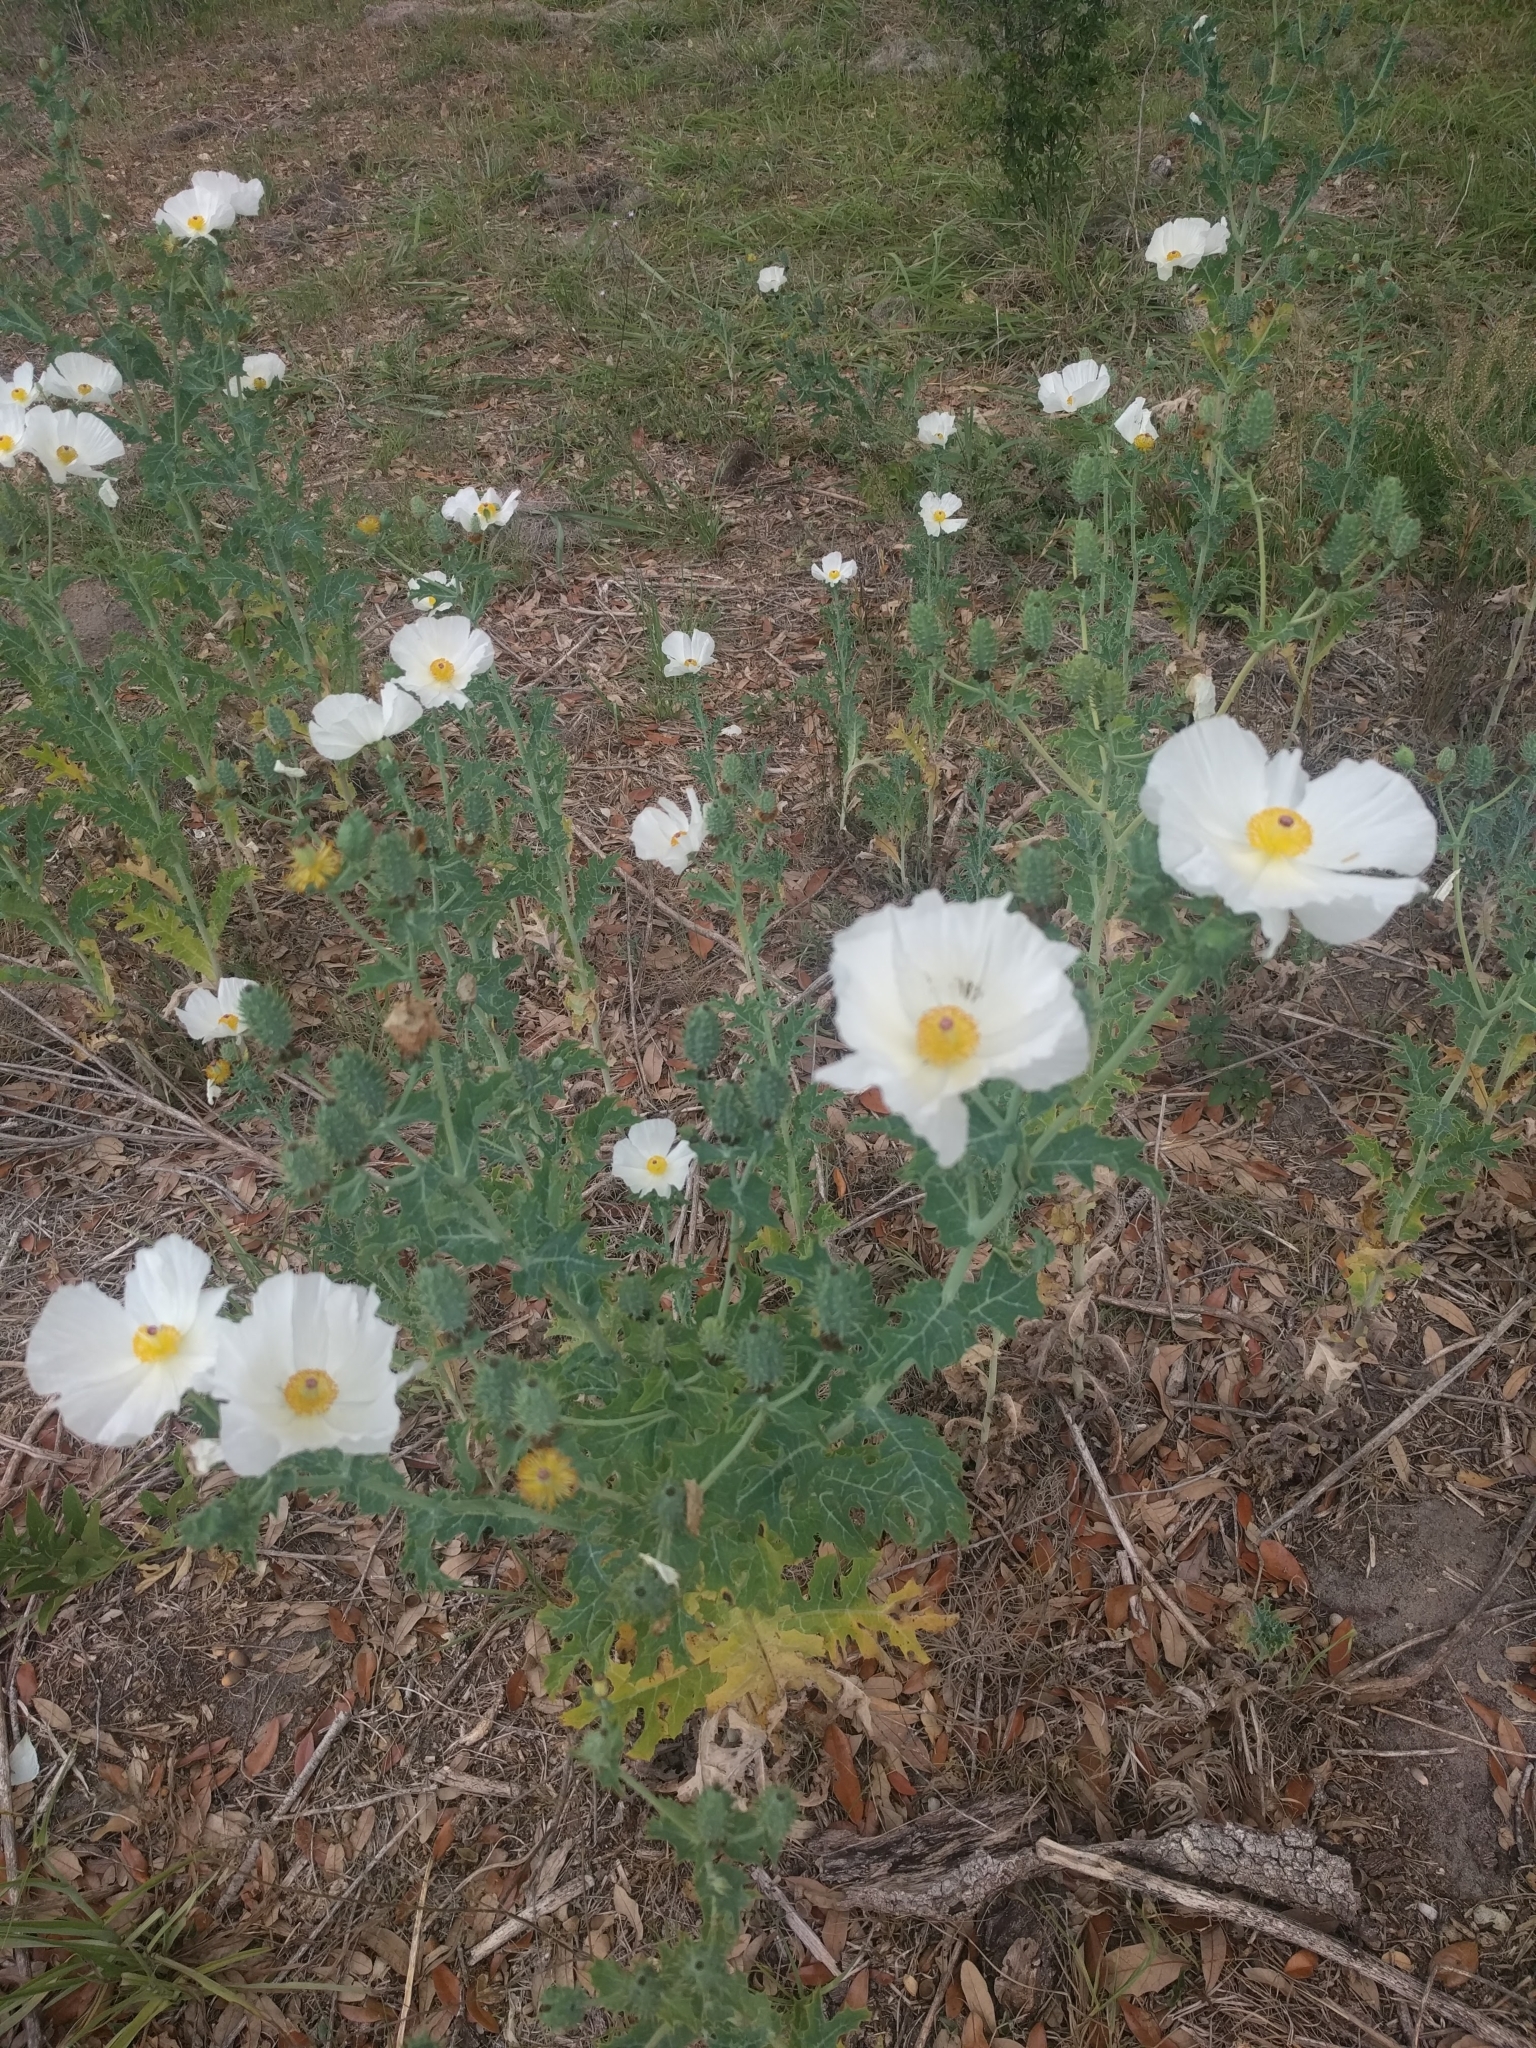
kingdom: Plantae
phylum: Tracheophyta
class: Magnoliopsida
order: Ranunculales
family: Papaveraceae
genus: Argemone
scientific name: Argemone albiflora
